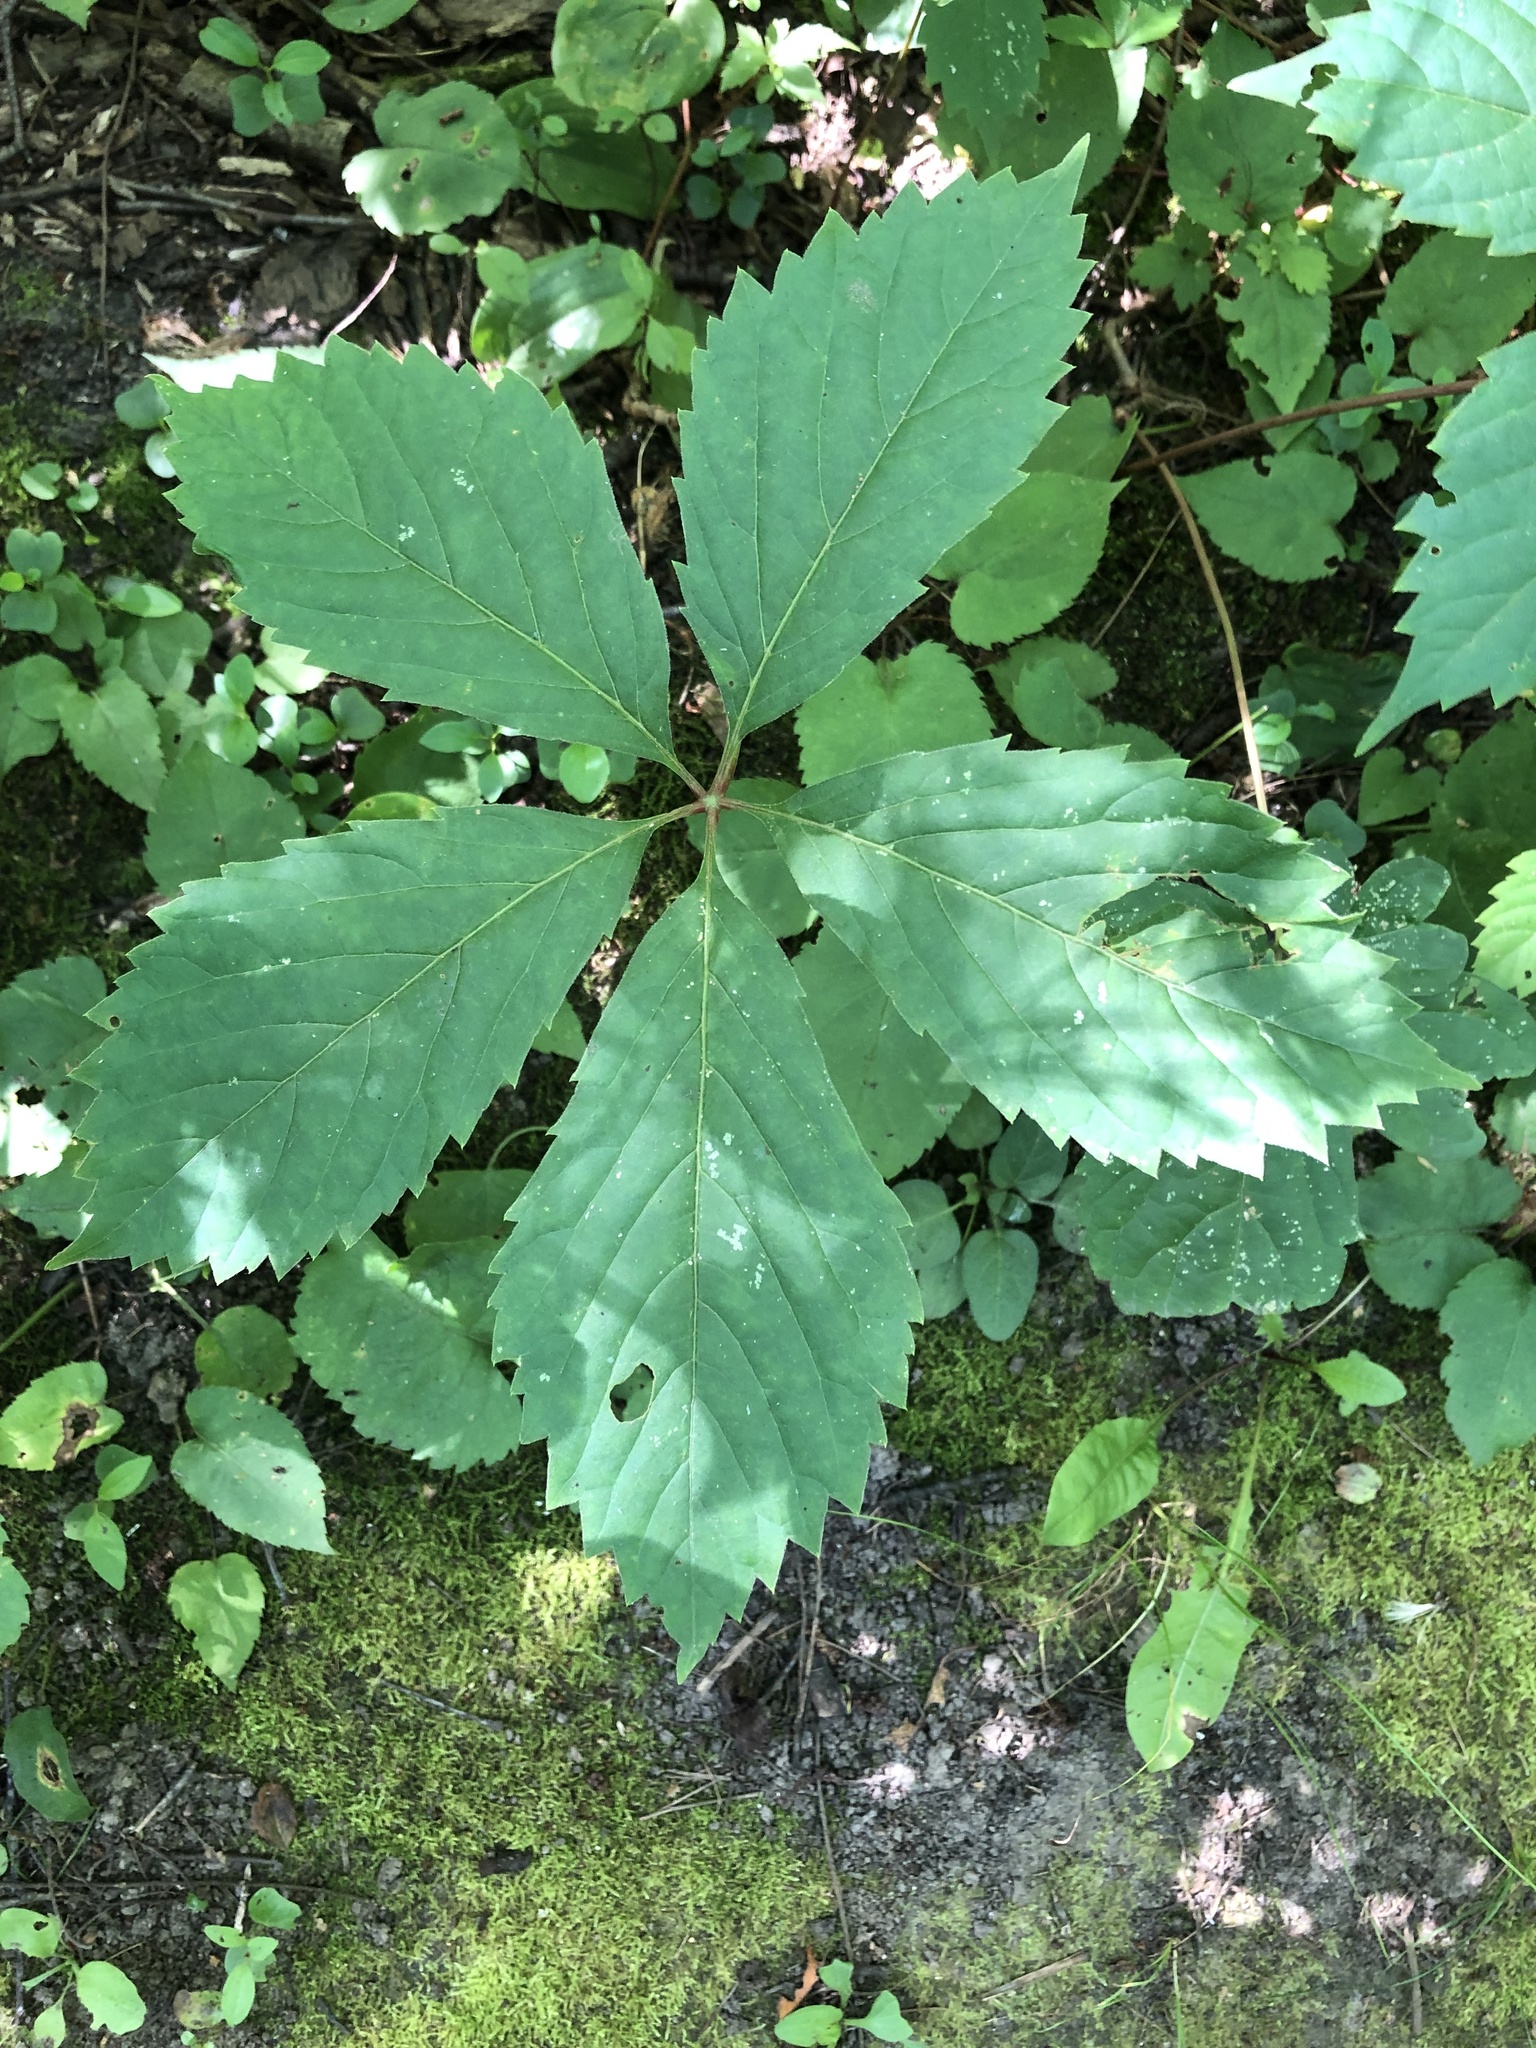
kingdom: Plantae
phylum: Tracheophyta
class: Magnoliopsida
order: Vitales
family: Vitaceae
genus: Parthenocissus
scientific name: Parthenocissus inserta
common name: False virginia-creeper
